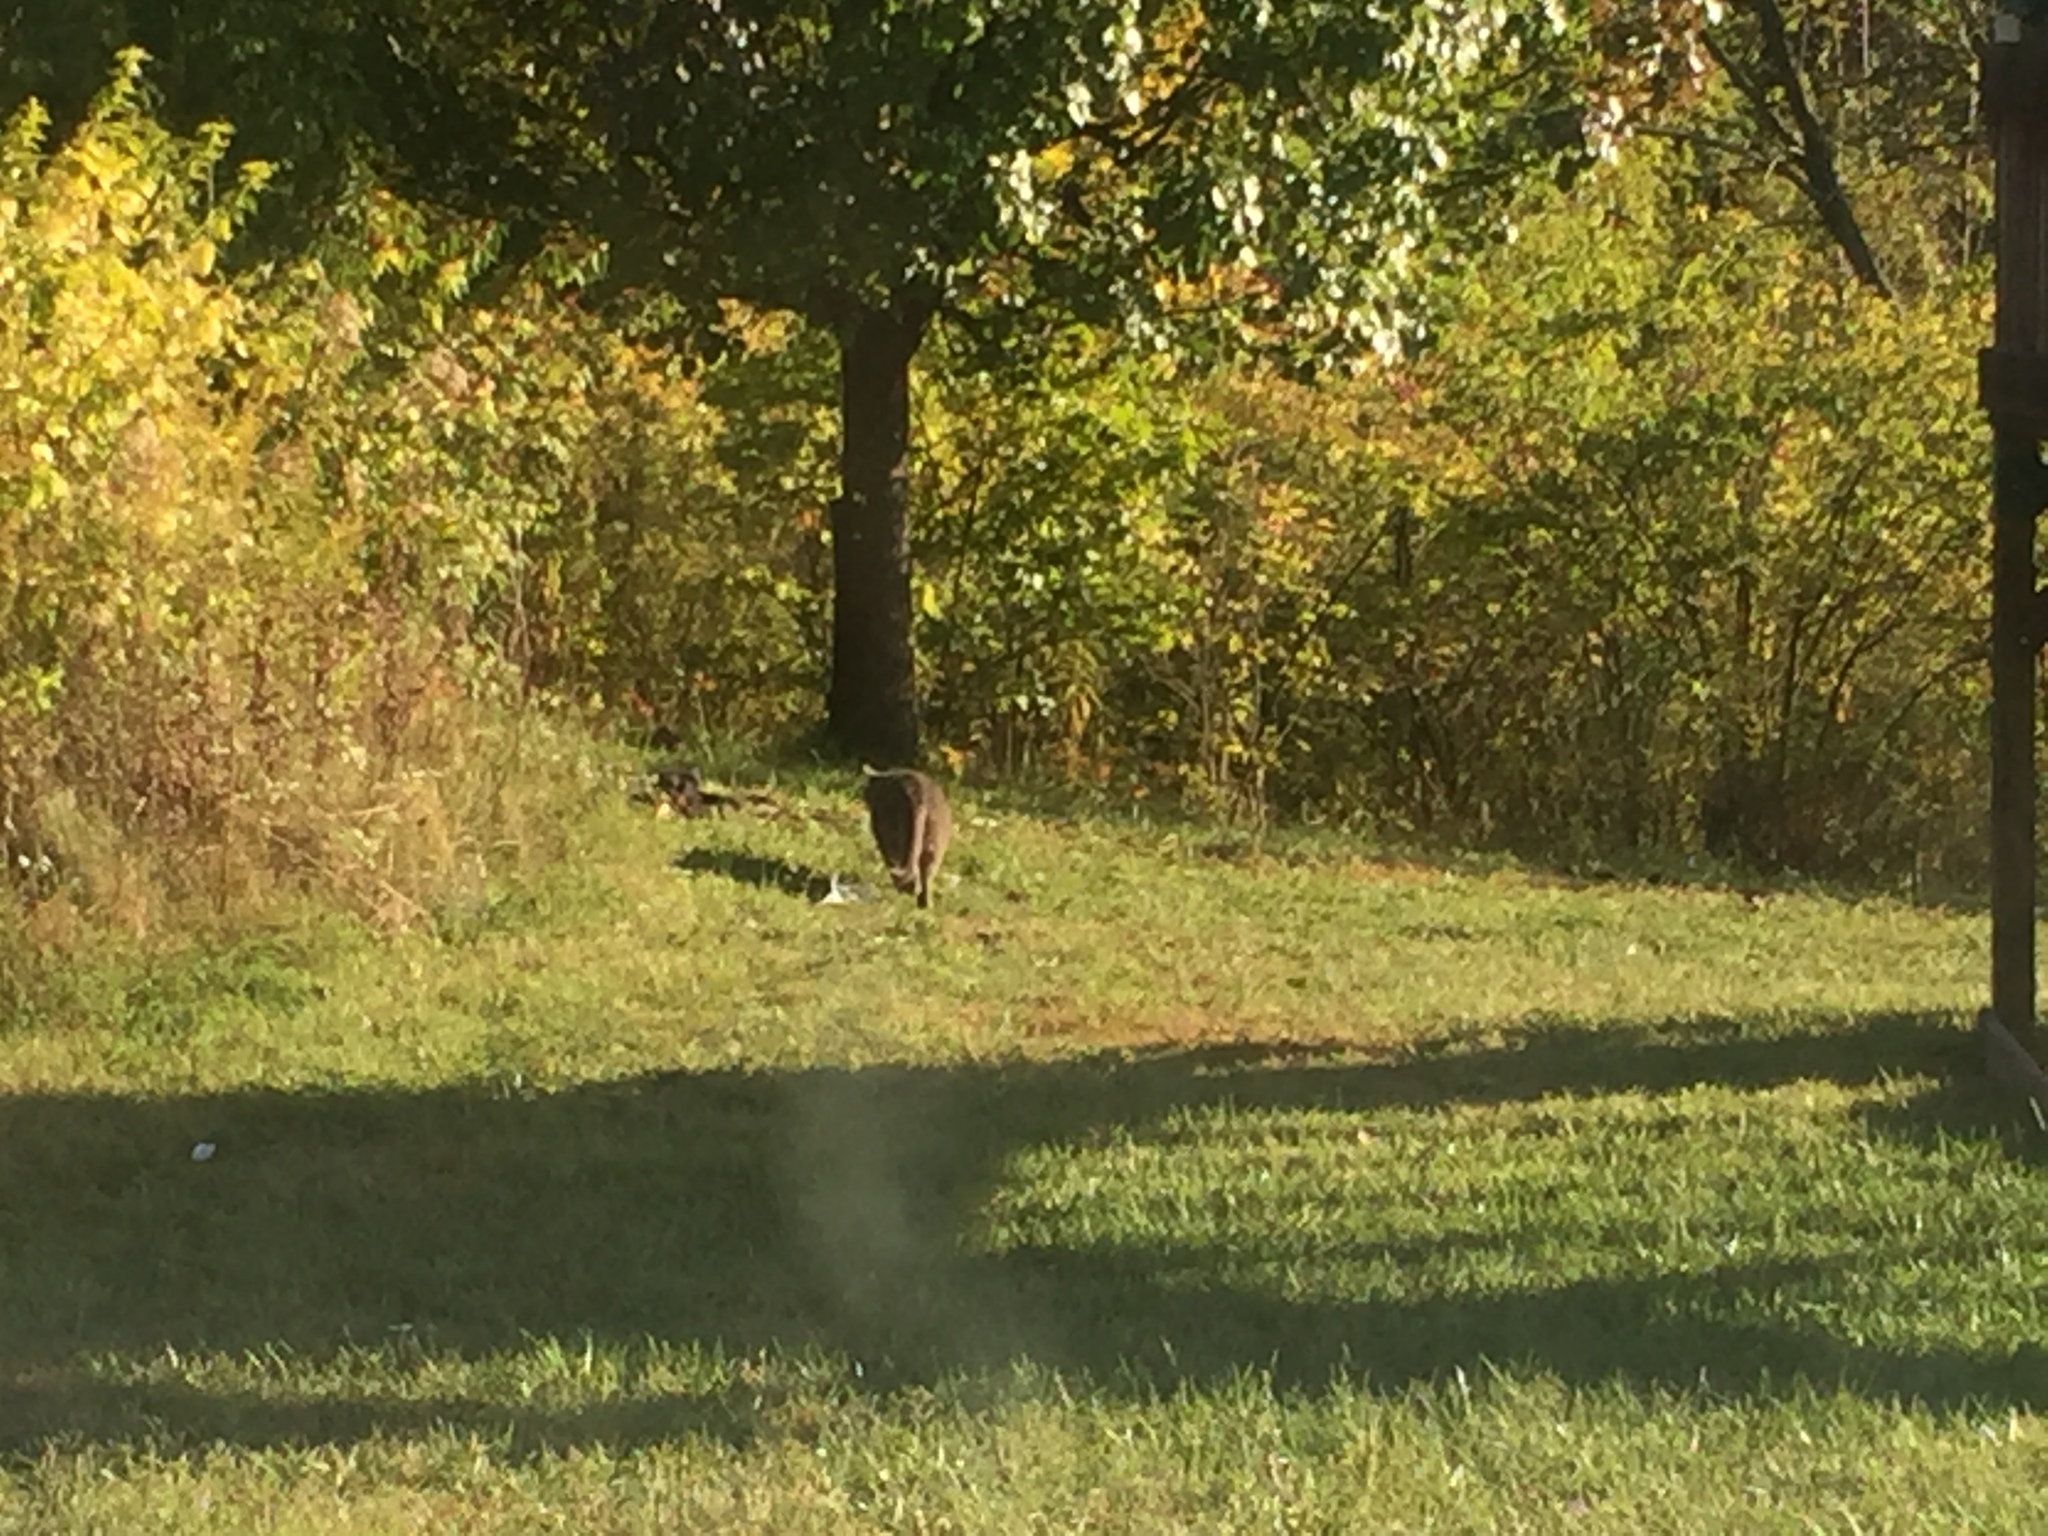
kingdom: Animalia
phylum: Chordata
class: Mammalia
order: Carnivora
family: Felidae
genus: Felis
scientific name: Felis catus
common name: Domestic cat
